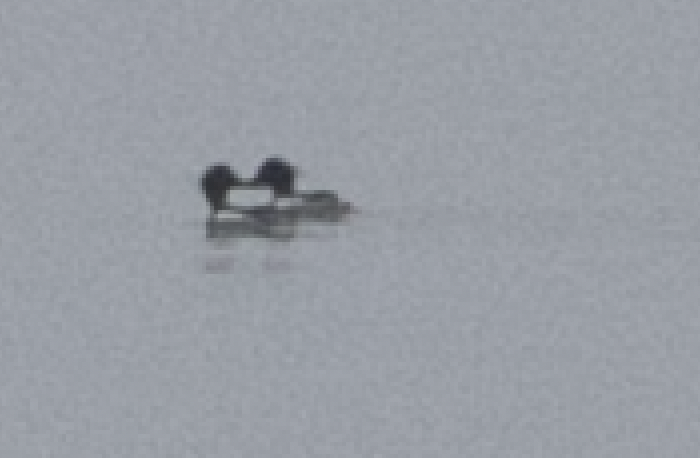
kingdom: Animalia
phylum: Chordata
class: Aves
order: Anseriformes
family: Anatidae
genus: Mergus
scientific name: Mergus serrator
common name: Red-breasted merganser
